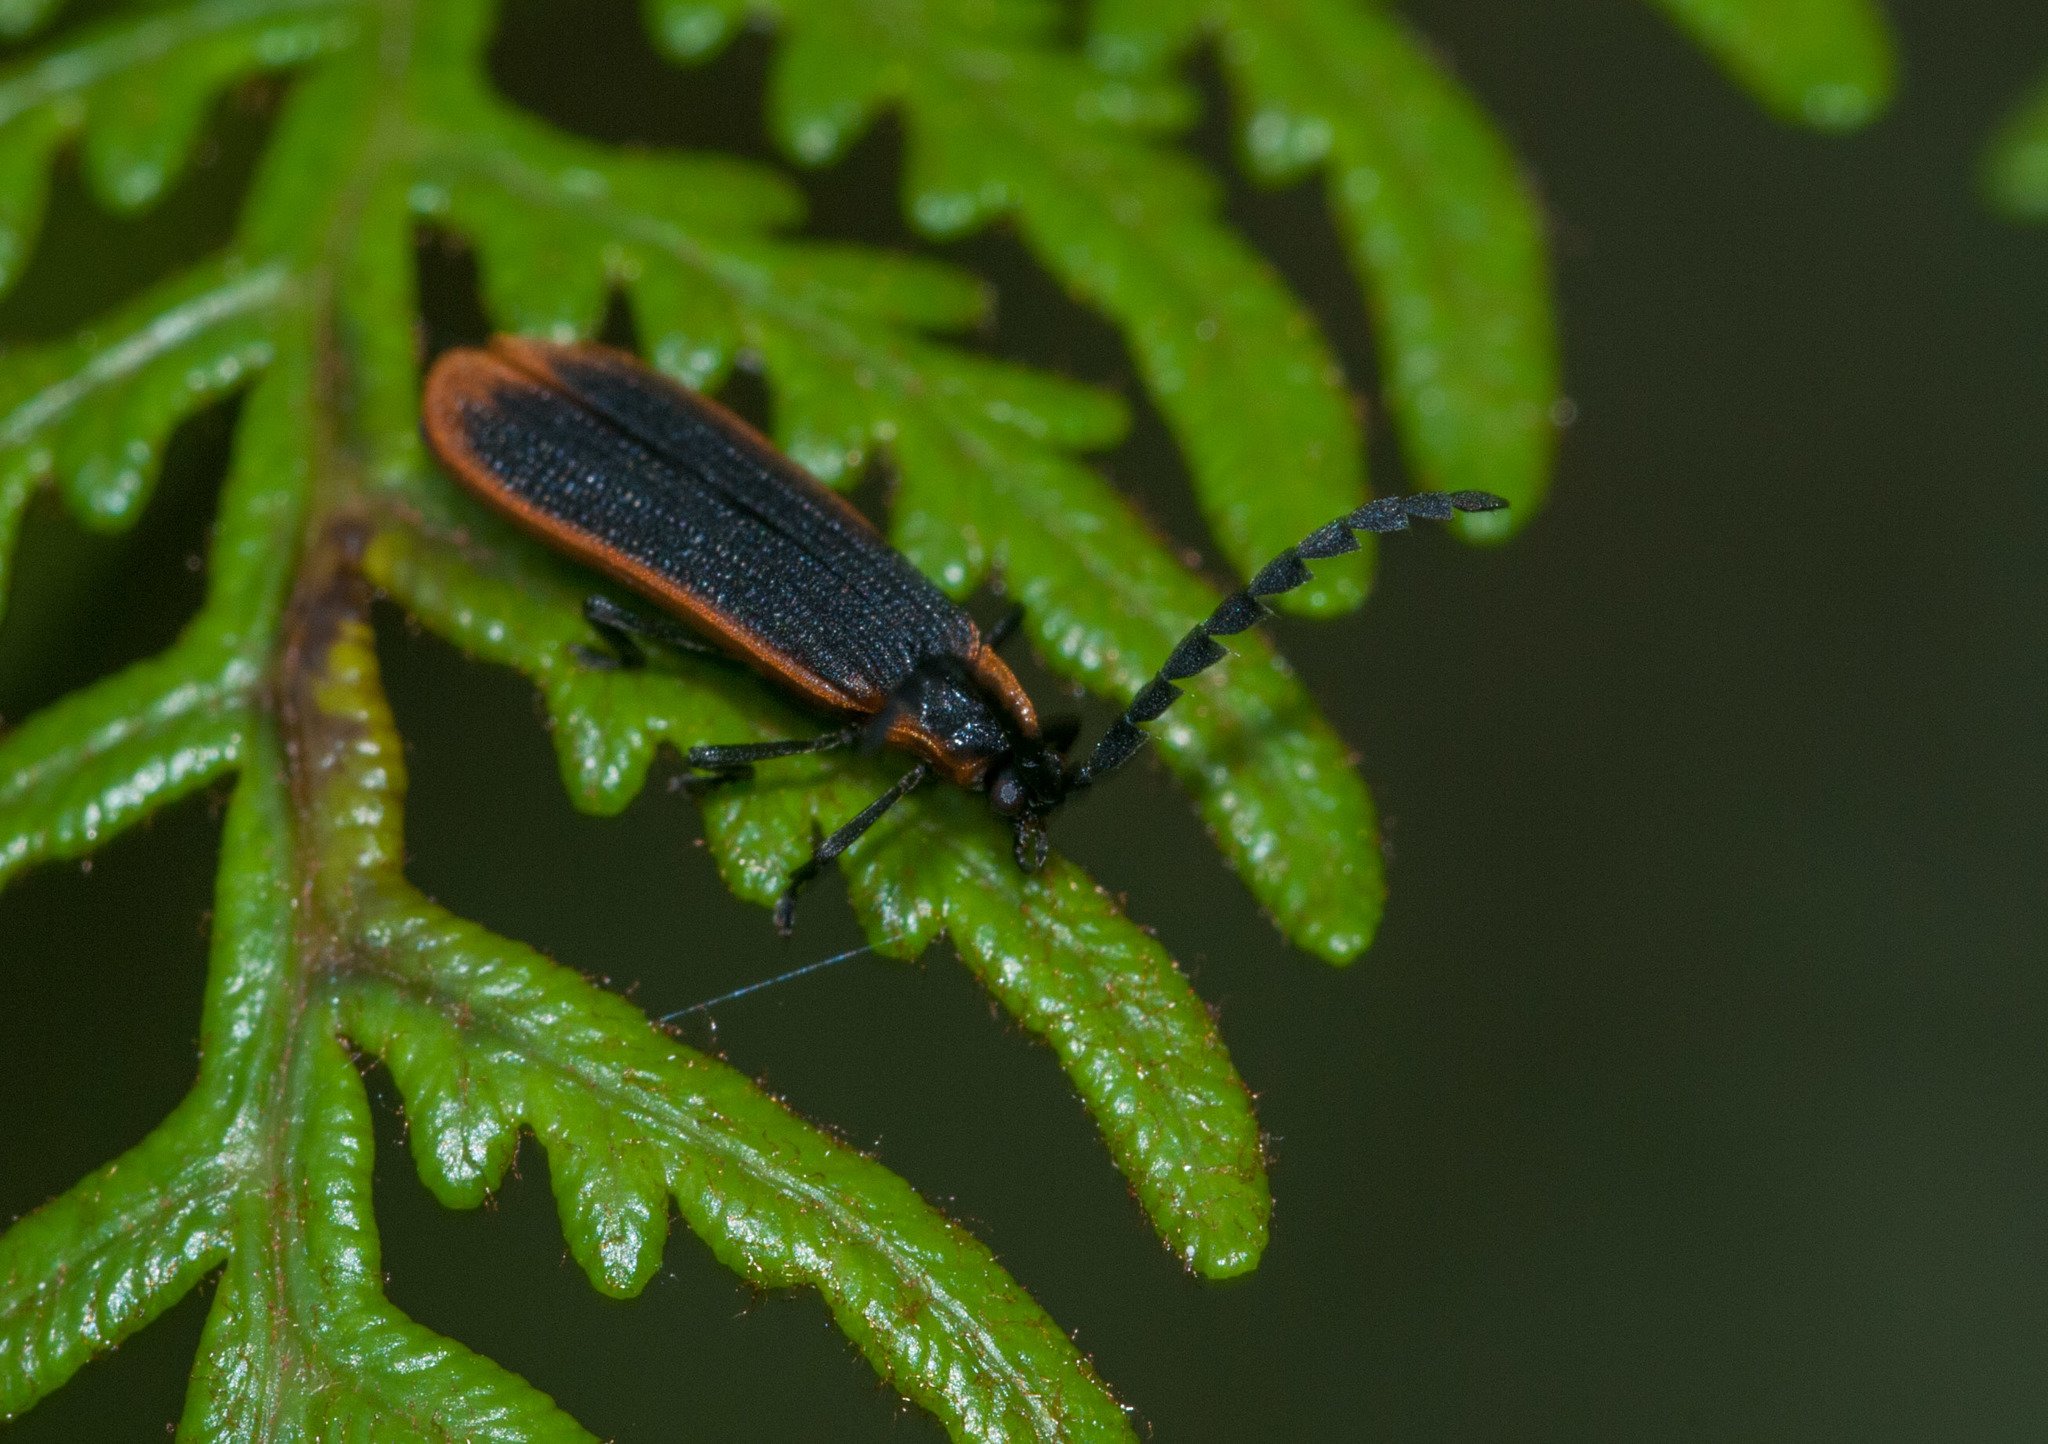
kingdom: Animalia
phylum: Arthropoda
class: Insecta
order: Coleoptera
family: Lycidae
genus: Achras
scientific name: Achras
